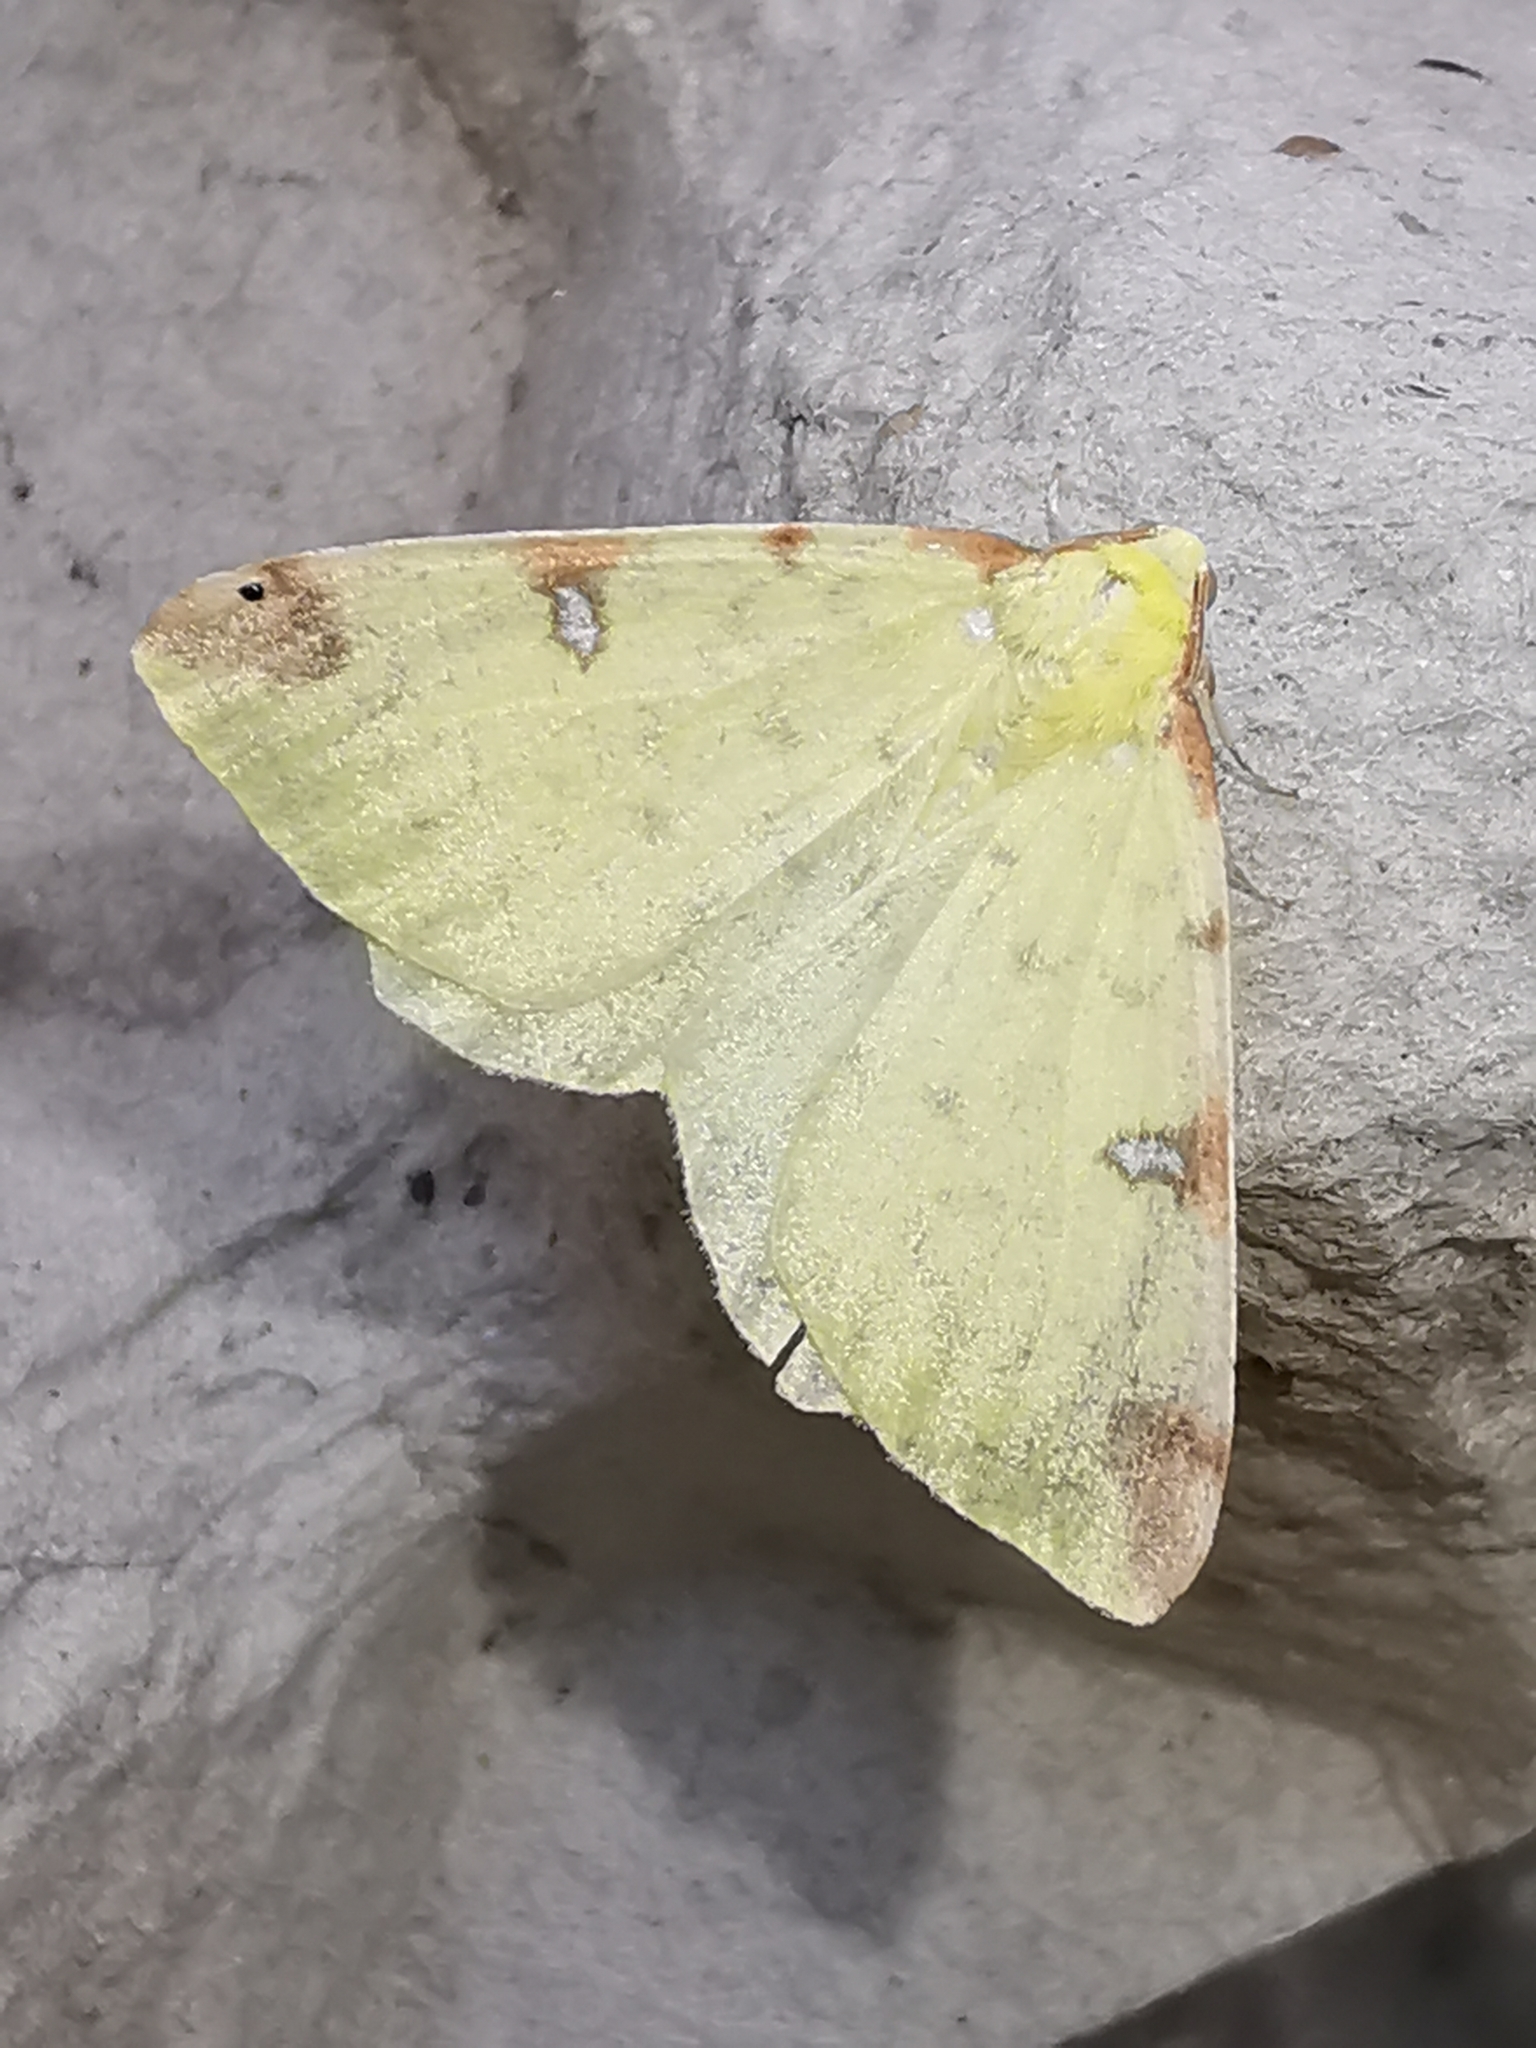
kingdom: Animalia
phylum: Arthropoda
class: Insecta
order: Lepidoptera
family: Geometridae
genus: Opisthograptis
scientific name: Opisthograptis luteolata
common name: Brimstone moth
